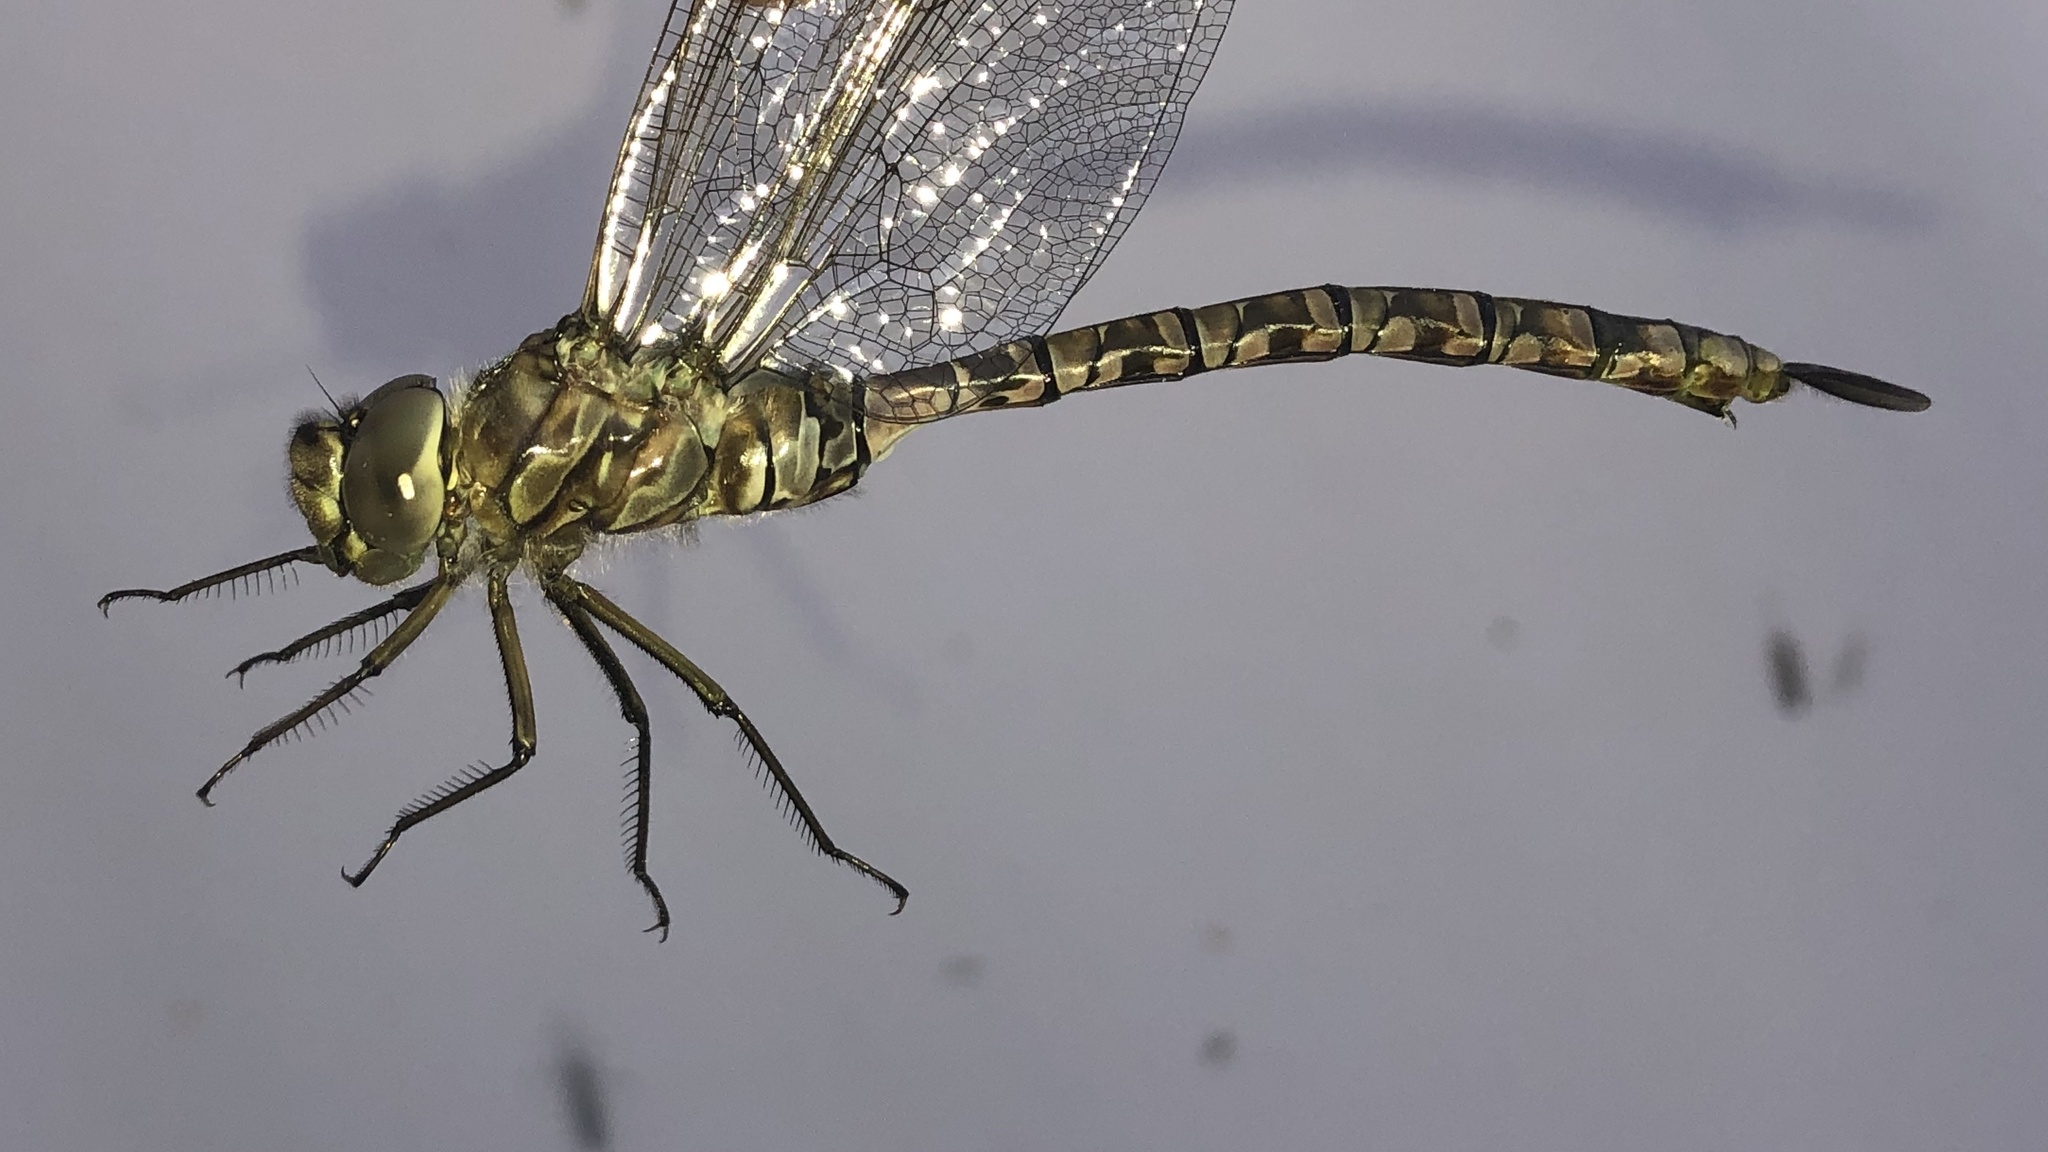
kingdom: Animalia
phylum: Arthropoda
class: Insecta
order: Odonata
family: Aeshnidae
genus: Aeshna
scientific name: Aeshna eremita
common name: Lake darner
